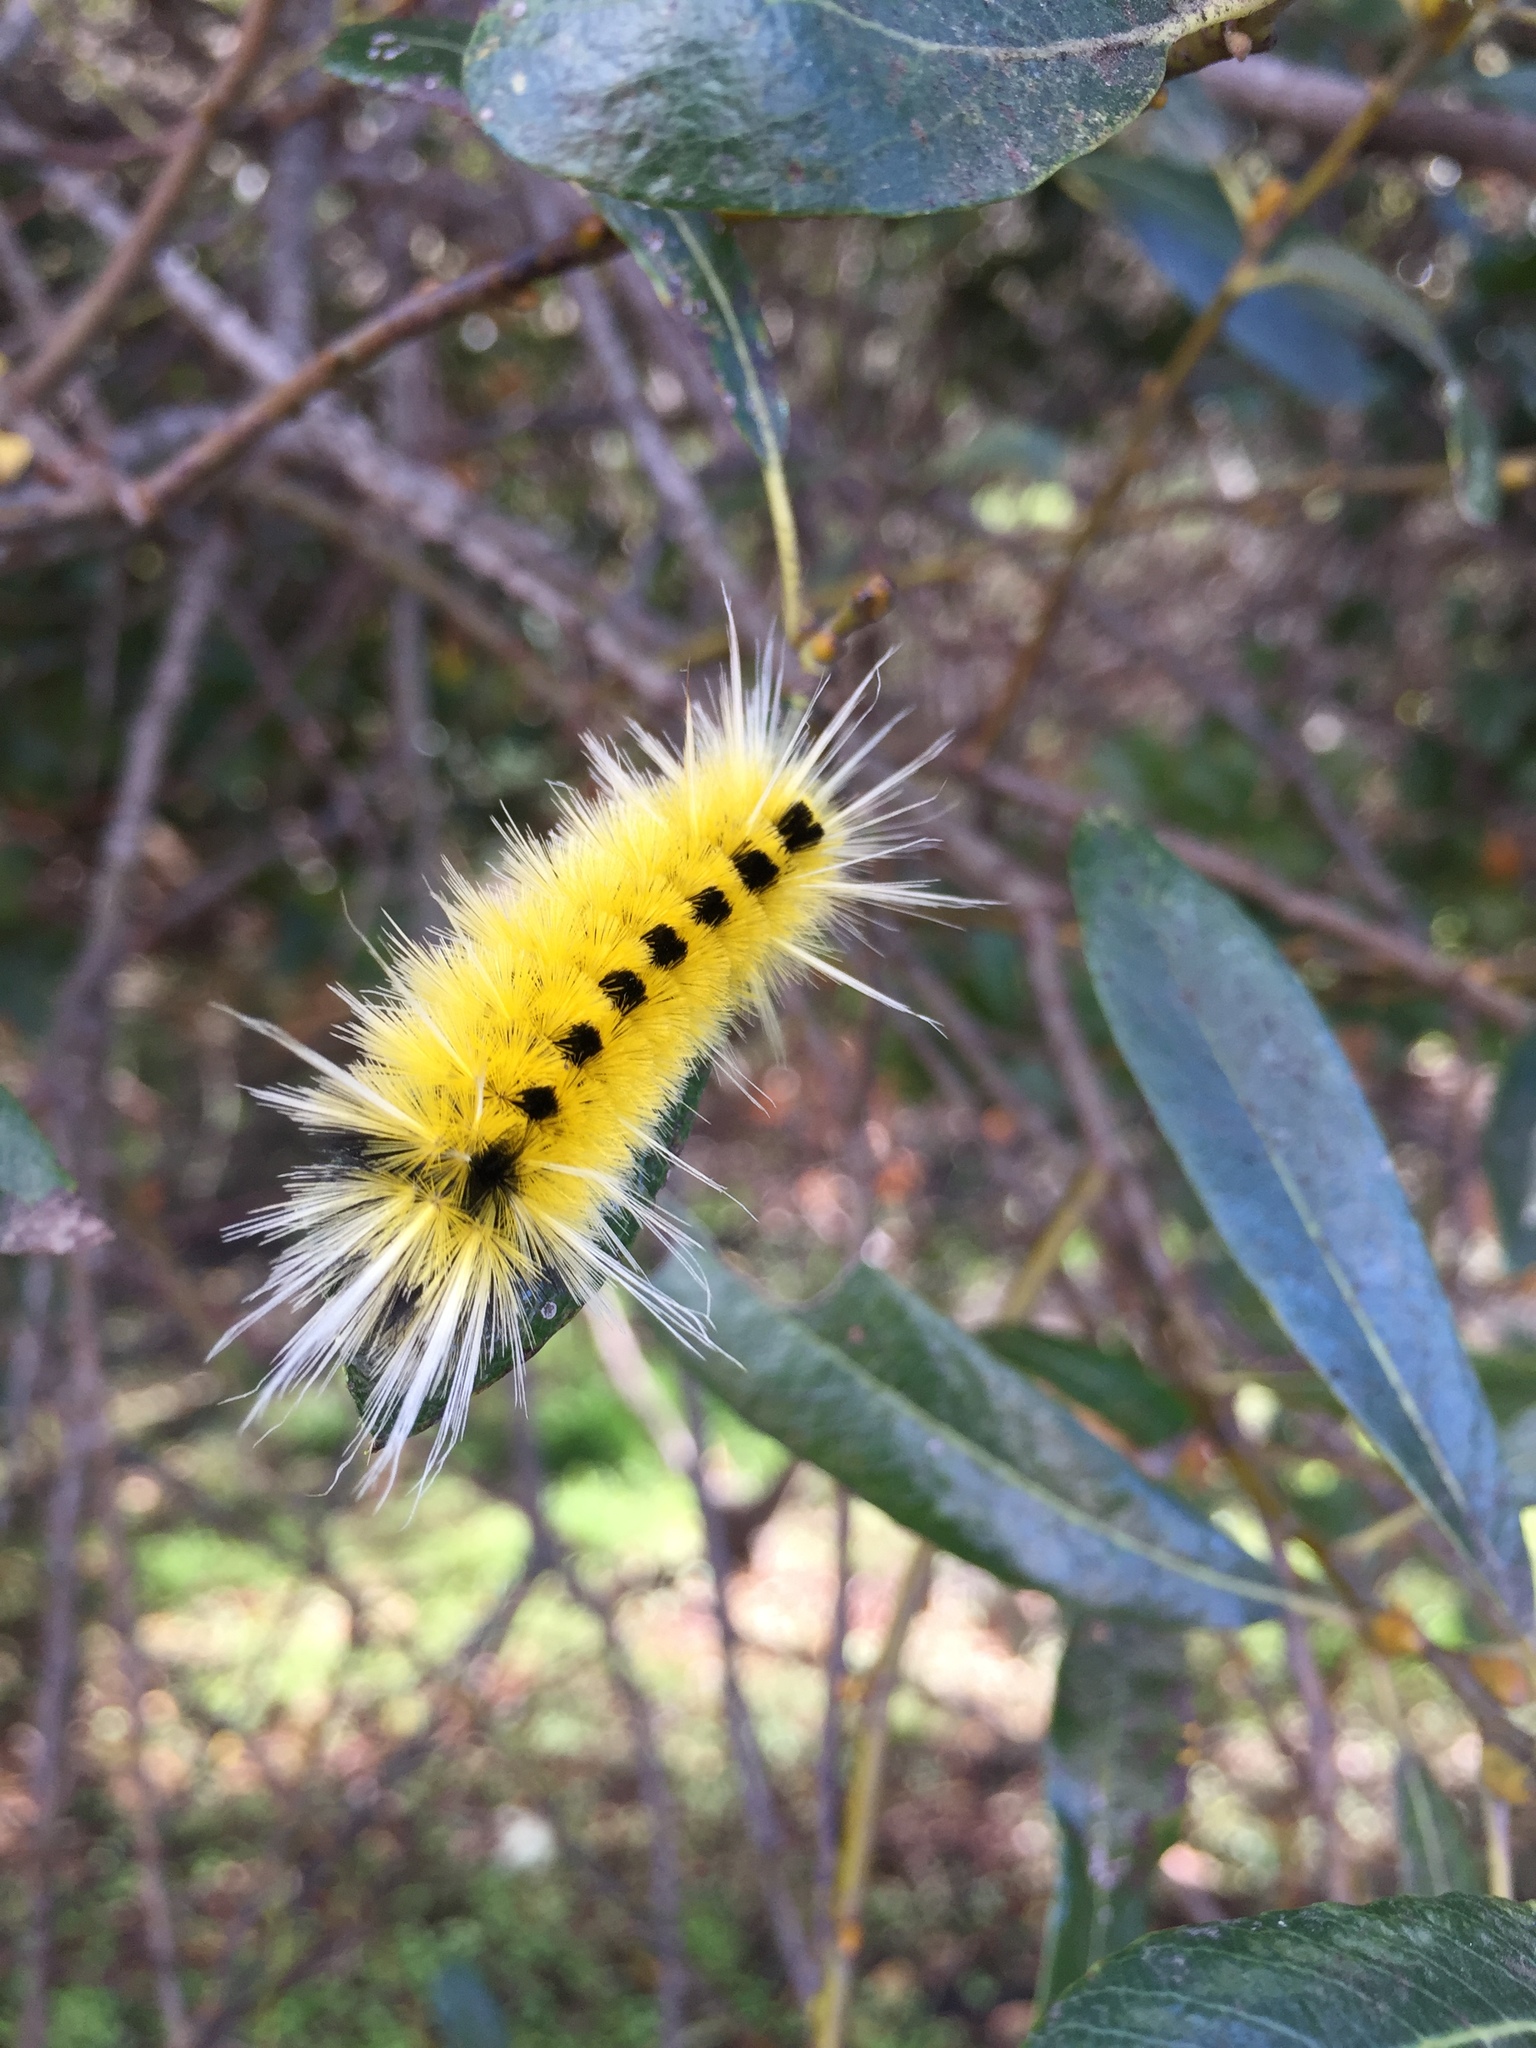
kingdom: Animalia
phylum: Arthropoda
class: Insecta
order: Lepidoptera
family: Erebidae
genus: Lophocampa
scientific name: Lophocampa maculata
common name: Spotted tussock moth
